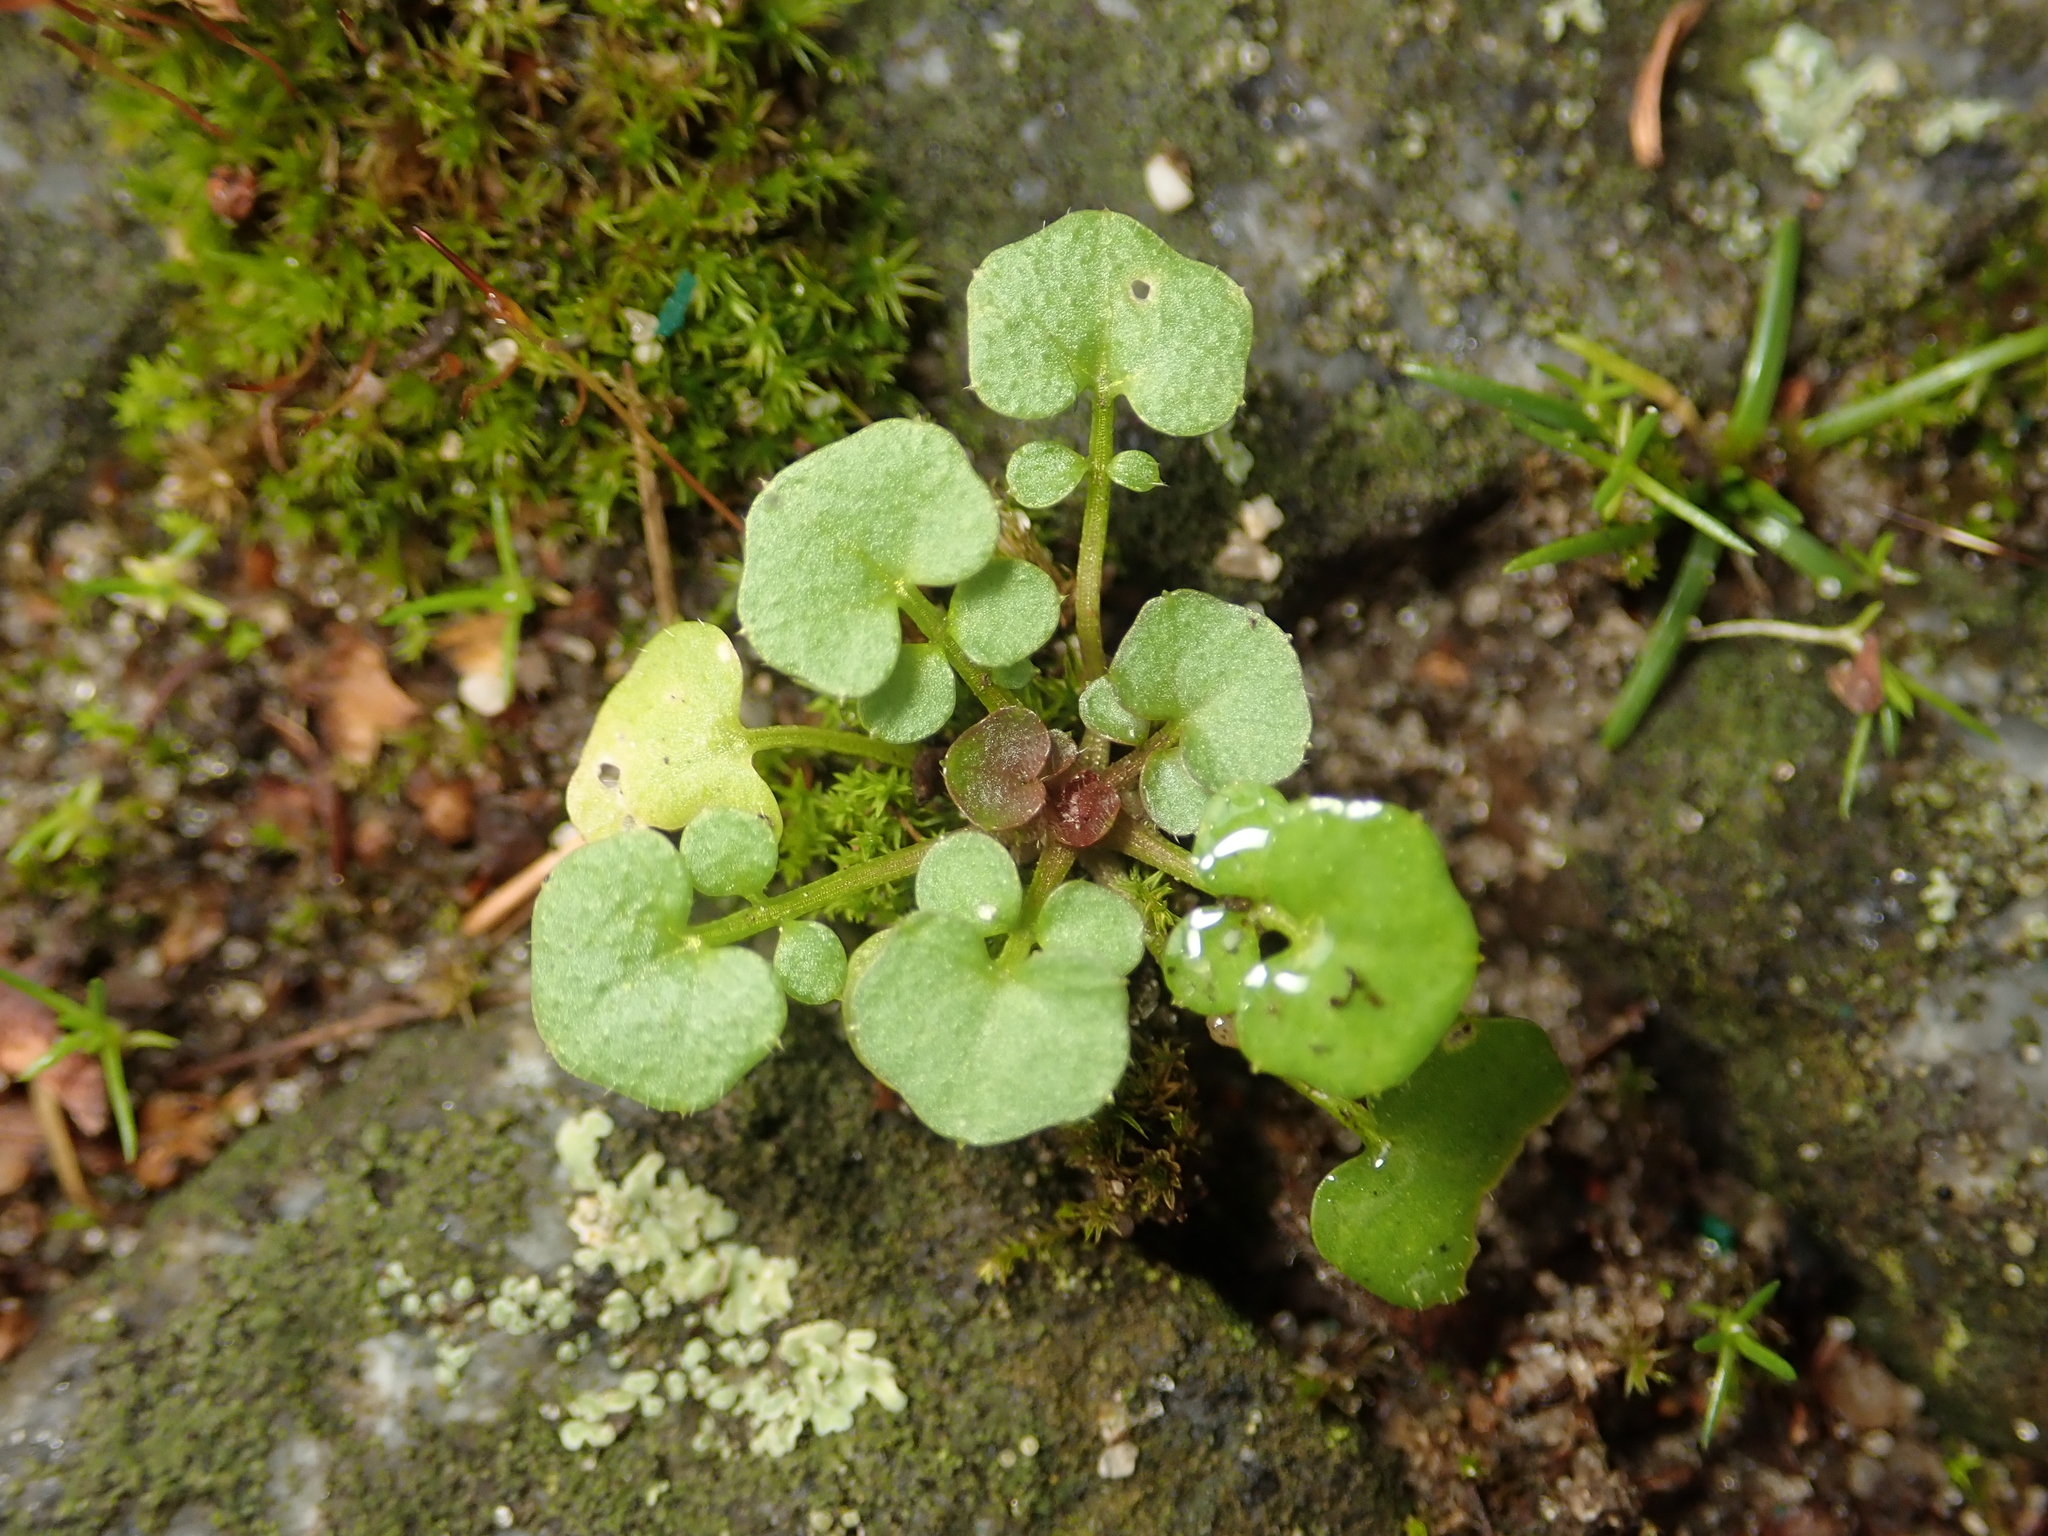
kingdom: Plantae
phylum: Tracheophyta
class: Magnoliopsida
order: Brassicales
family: Brassicaceae
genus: Cardamine
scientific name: Cardamine hirsuta
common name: Hairy bittercress
